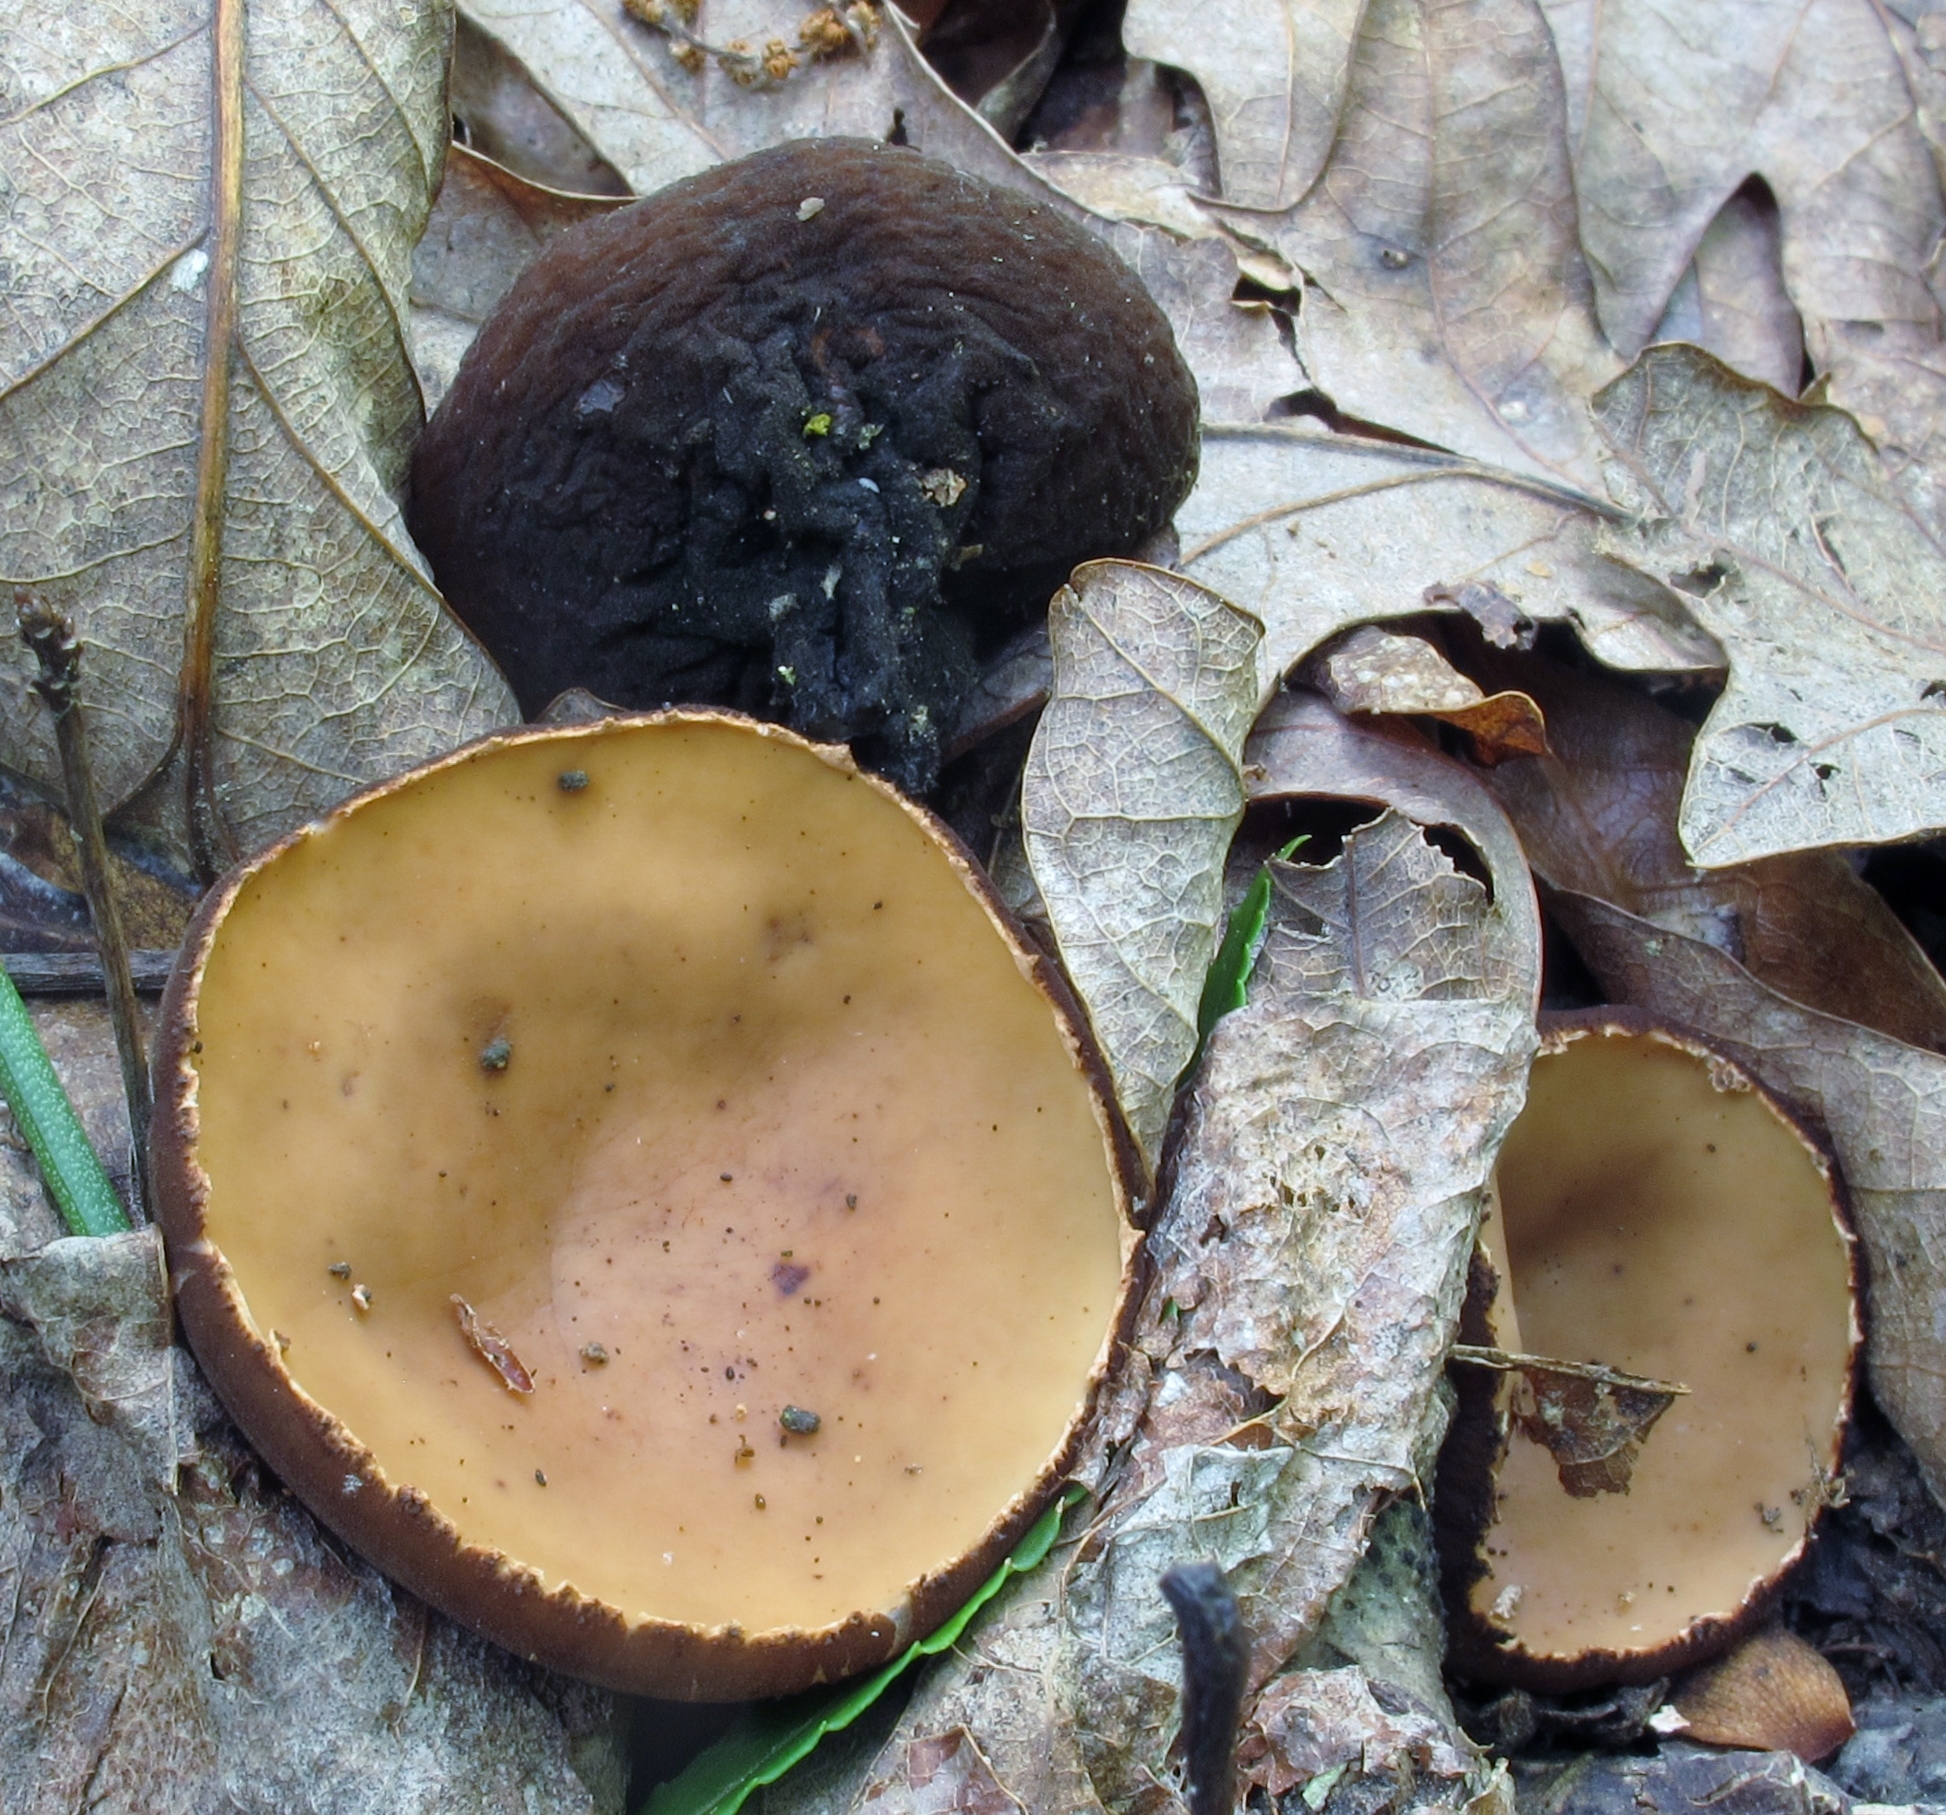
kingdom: Fungi
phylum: Ascomycota
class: Pezizomycetes
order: Pezizales
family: Sarcosomataceae
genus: Galiella
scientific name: Galiella rufa
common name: Hairy rubber cup
